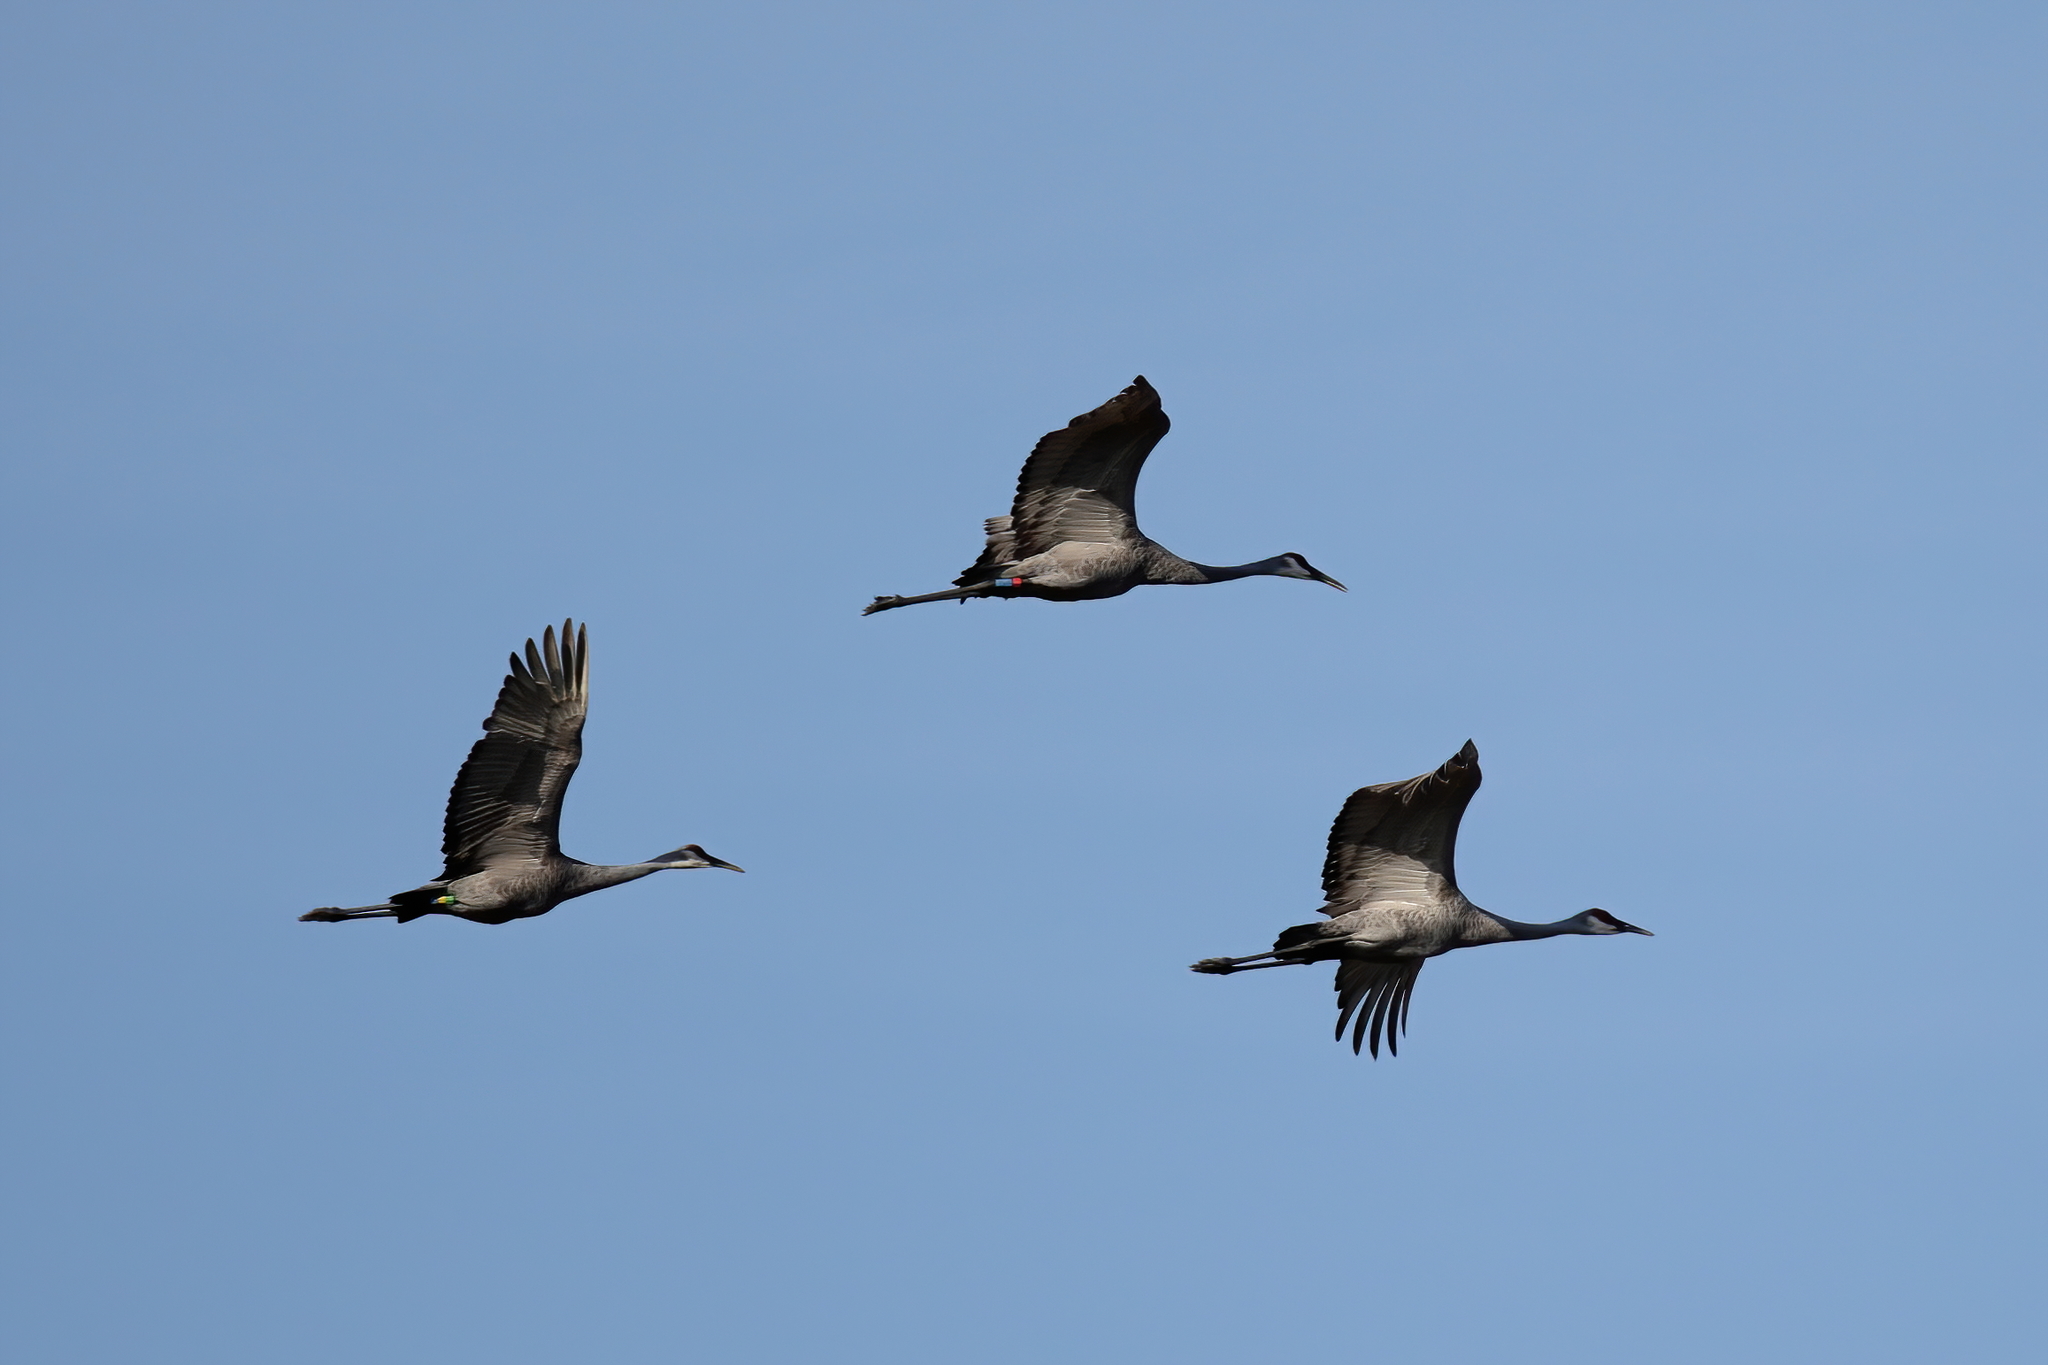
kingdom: Animalia
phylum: Chordata
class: Aves
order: Gruiformes
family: Gruidae
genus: Grus
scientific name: Grus canadensis
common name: Sandhill crane
